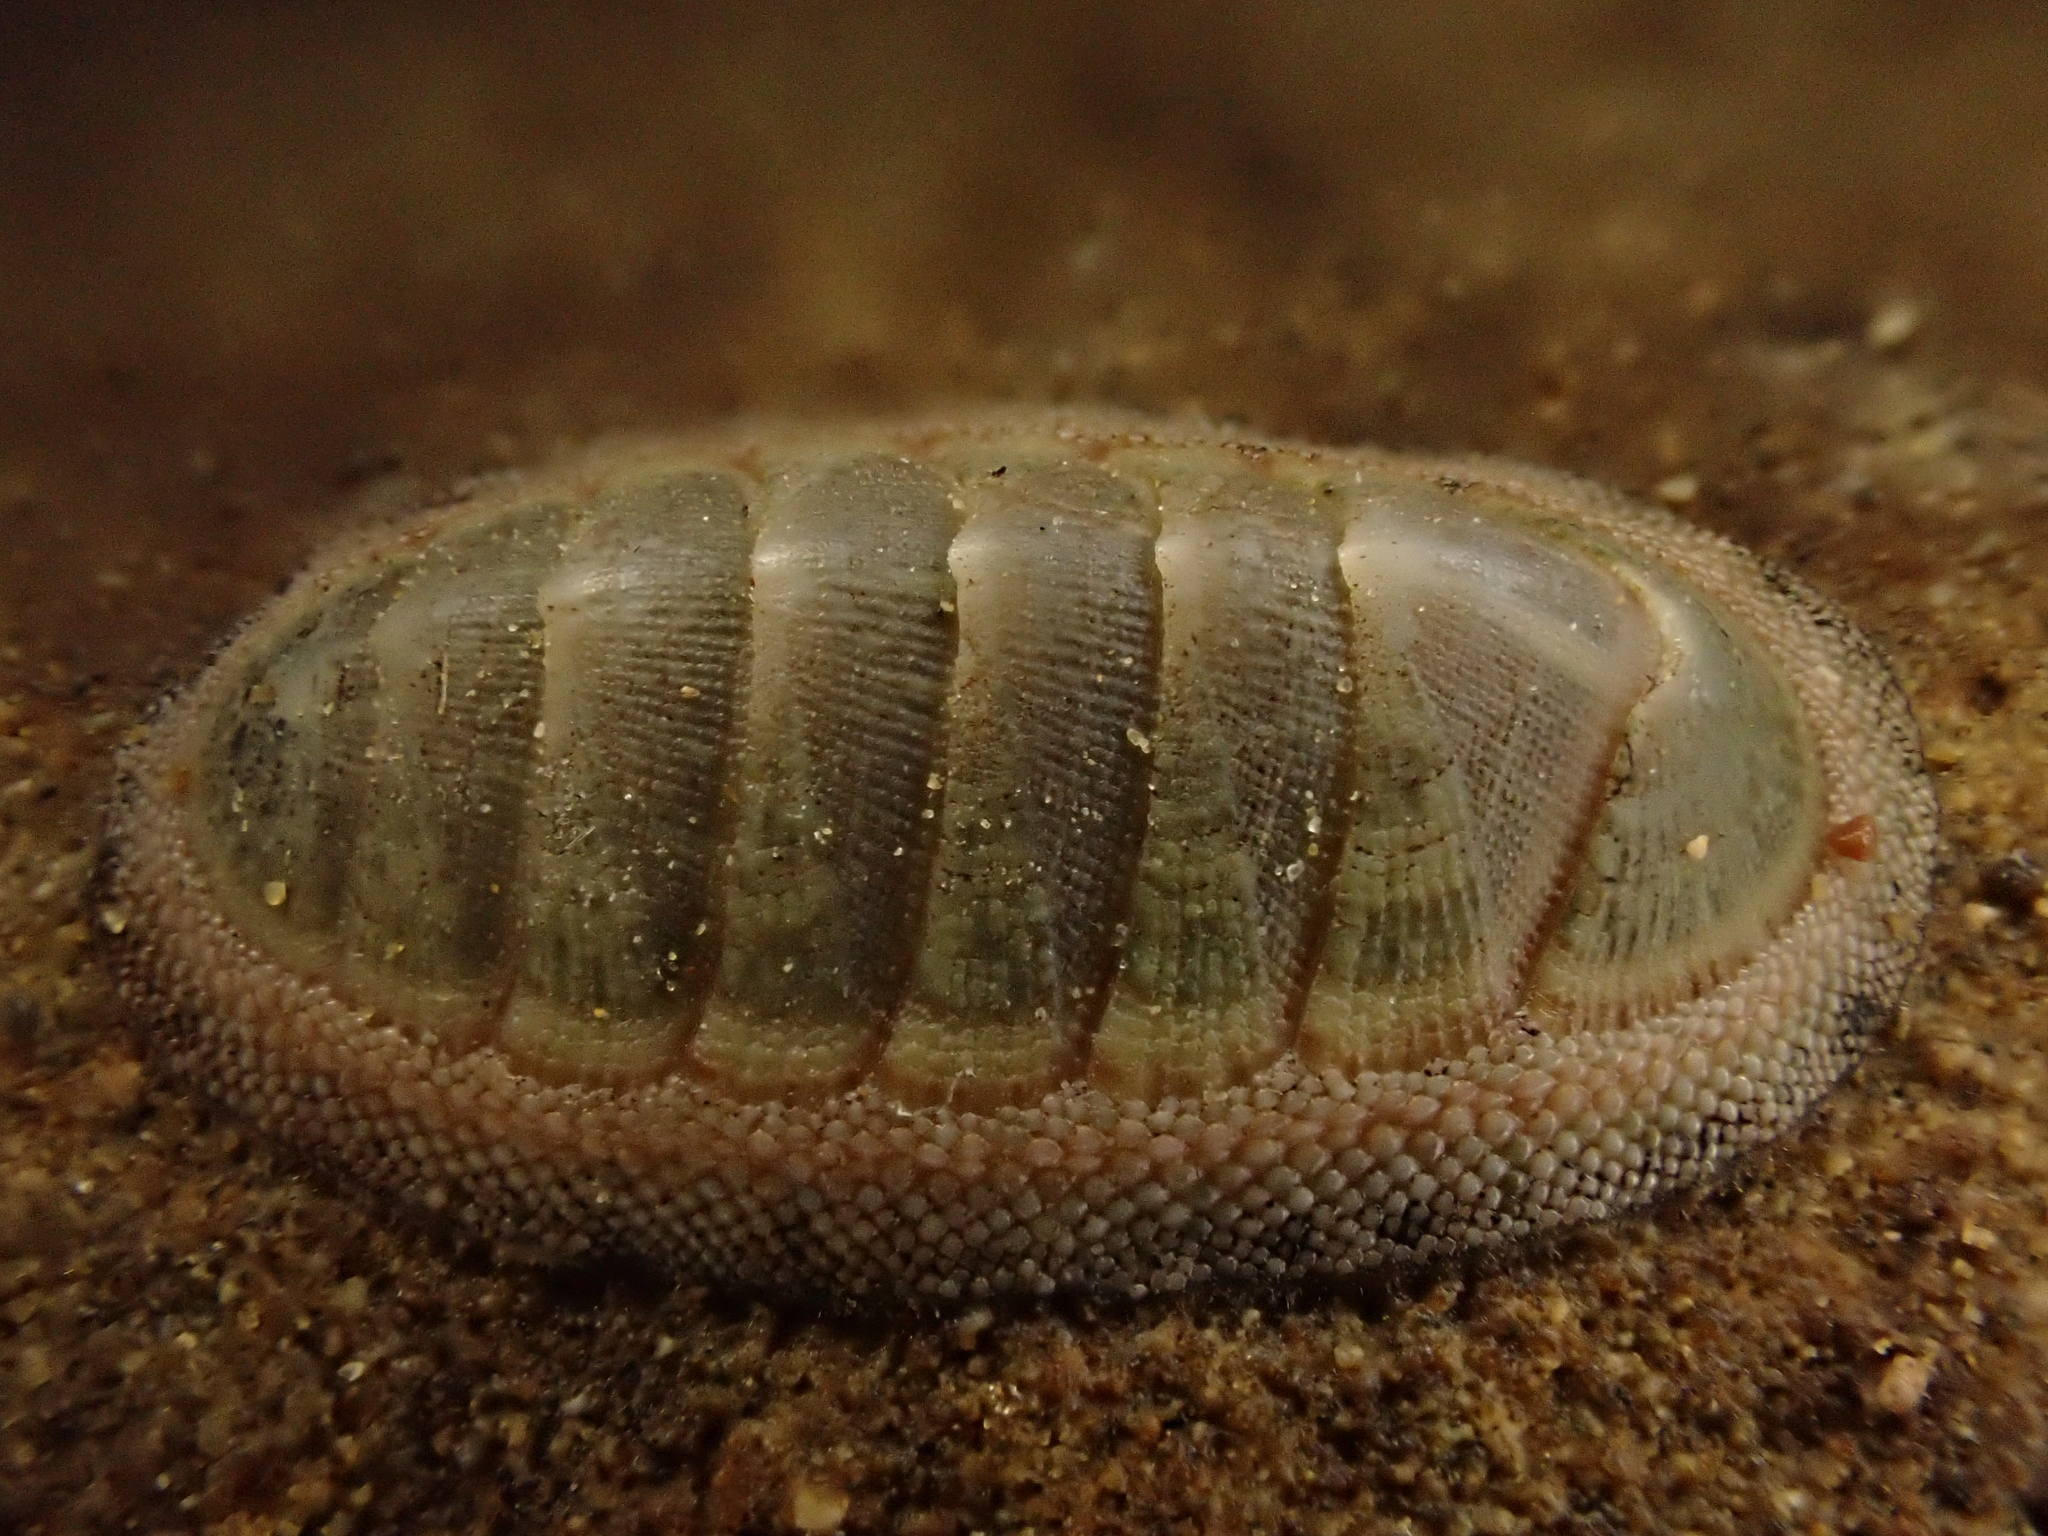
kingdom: Animalia
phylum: Mollusca
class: Polyplacophora
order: Chitonida
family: Chitonidae
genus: Chiton
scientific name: Chiton glaucus
